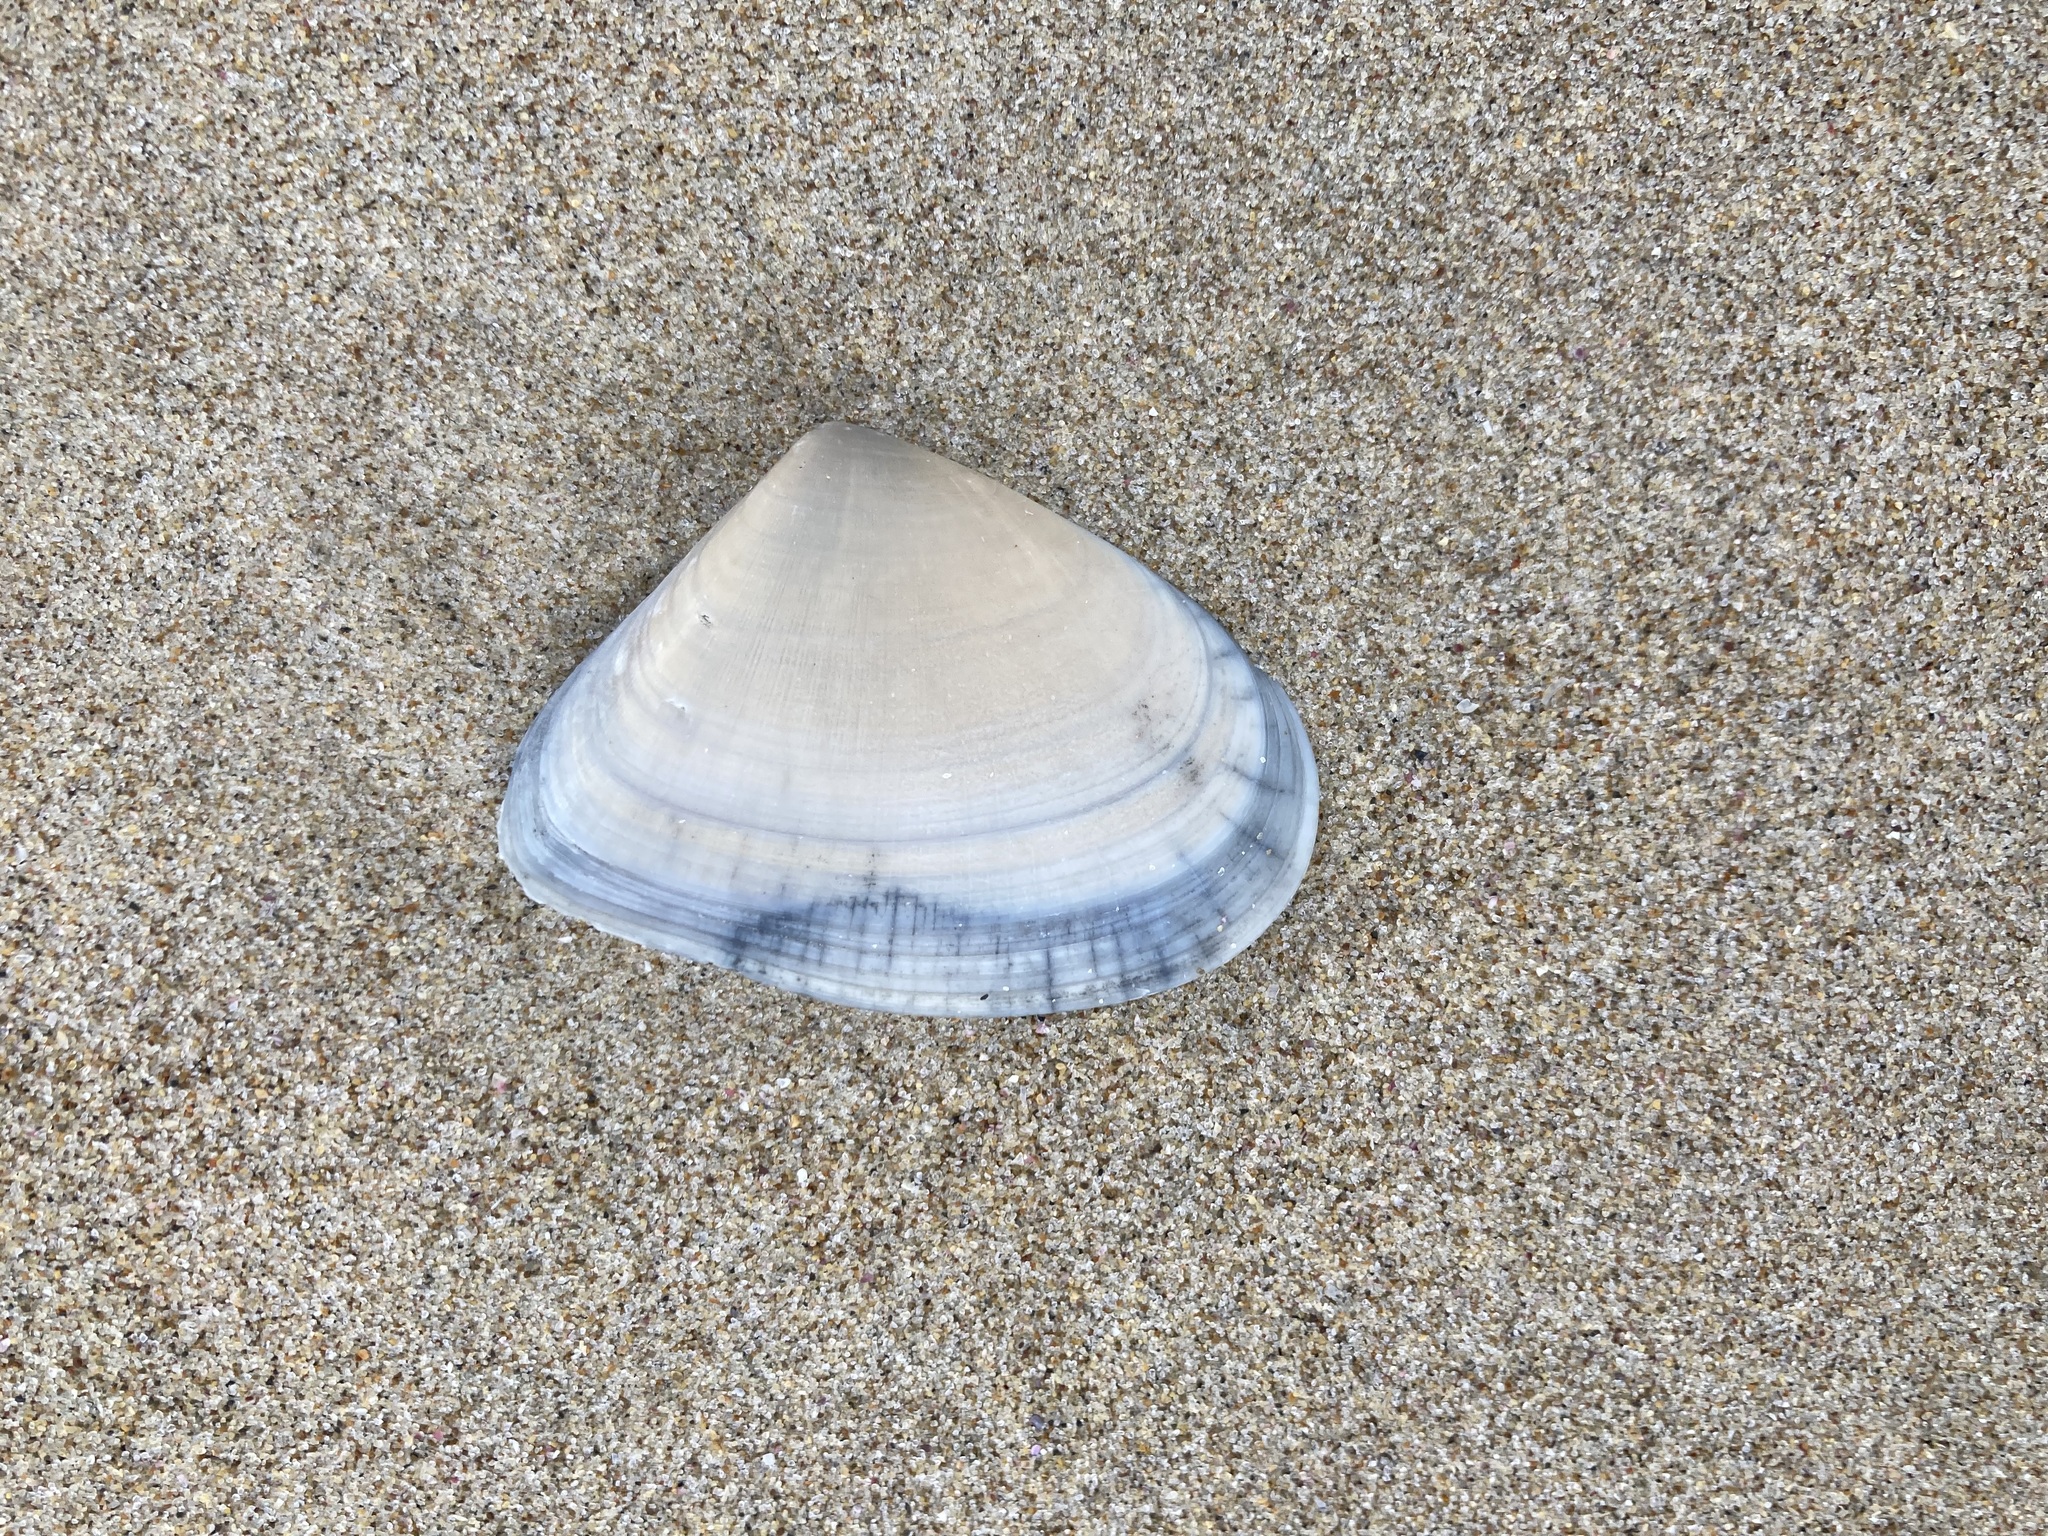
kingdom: Animalia
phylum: Mollusca
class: Bivalvia
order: Cardiida
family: Donacidae
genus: Latona
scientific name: Latona deltoides
